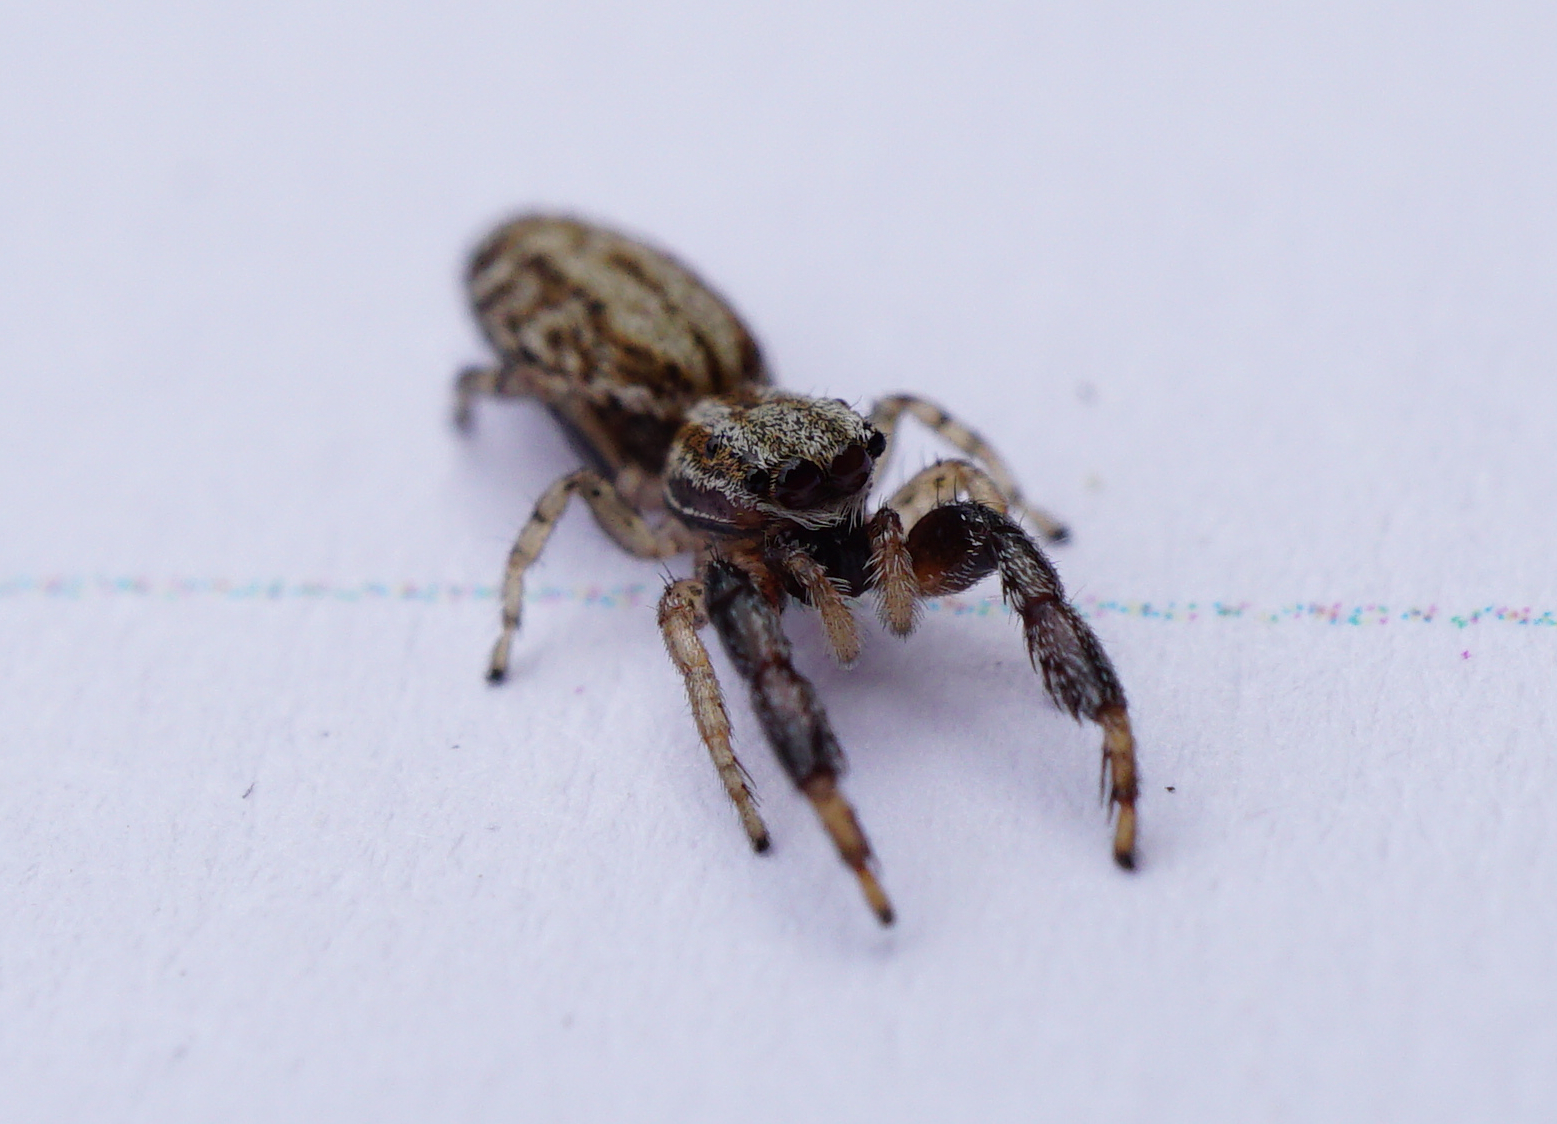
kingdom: Animalia
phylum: Arthropoda
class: Arachnida
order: Araneae
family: Salticidae
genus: Marpissa
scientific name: Marpissa nivoyi
